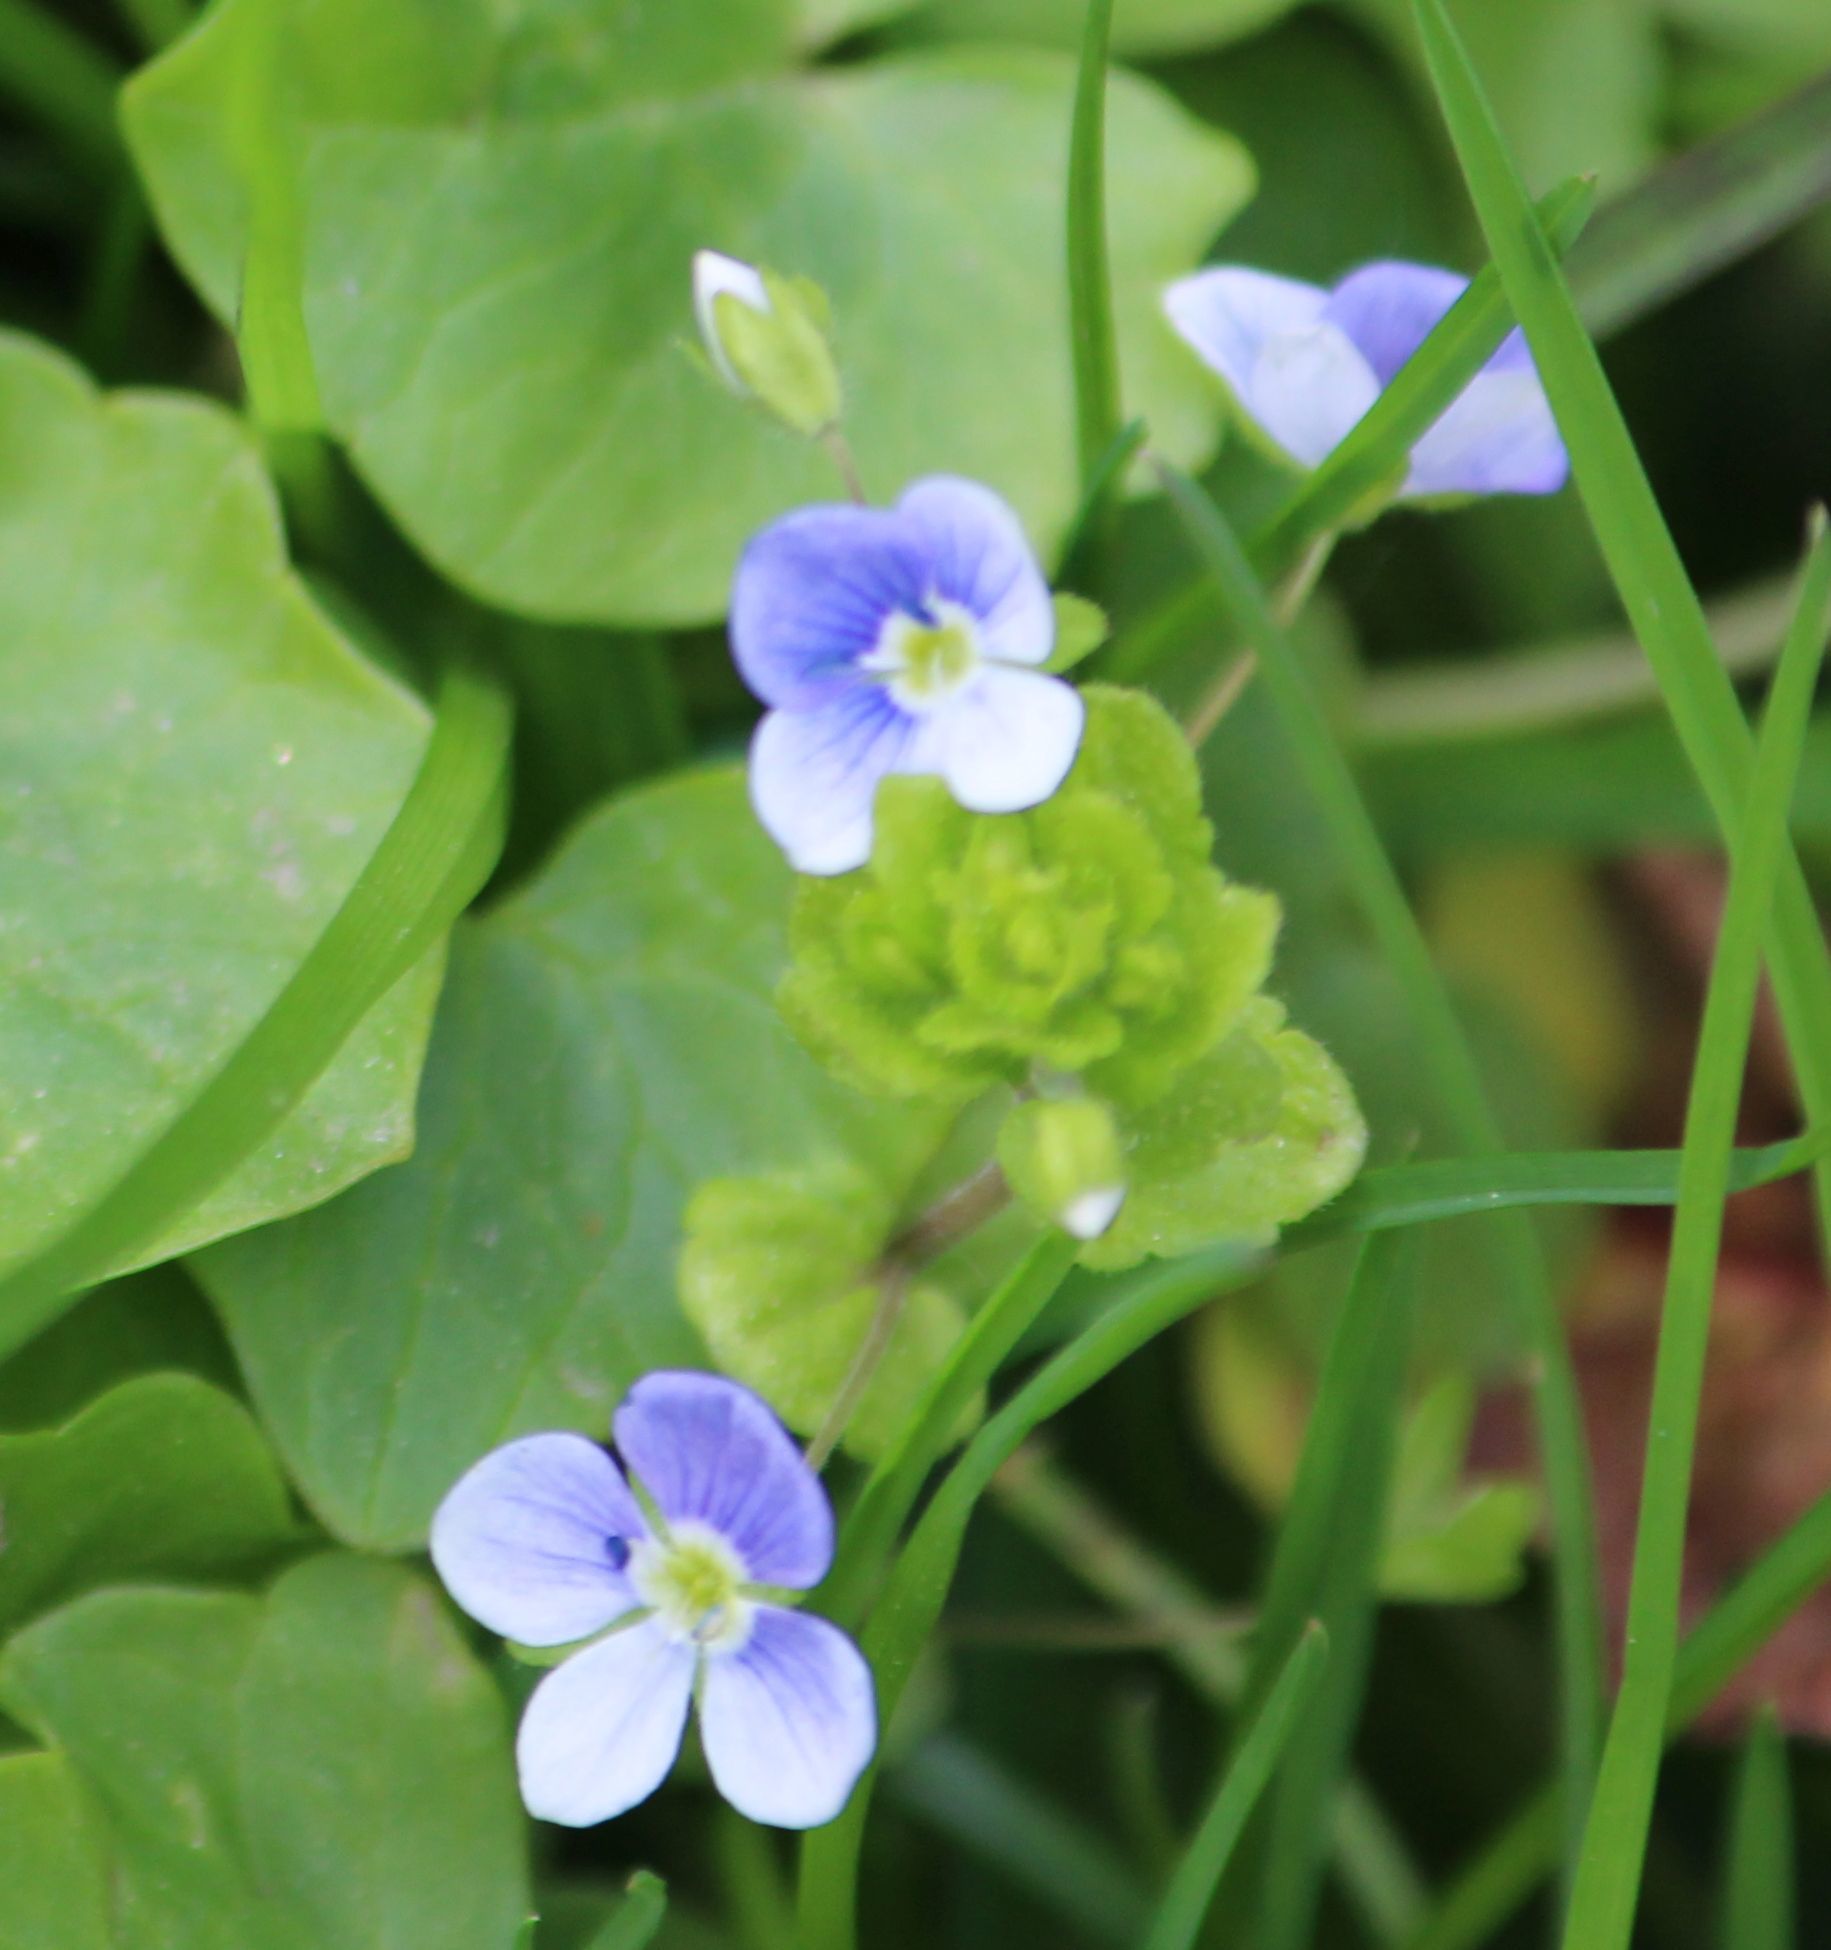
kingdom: Plantae
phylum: Tracheophyta
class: Magnoliopsida
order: Lamiales
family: Plantaginaceae
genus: Veronica
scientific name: Veronica filiformis
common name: Slender speedwell
